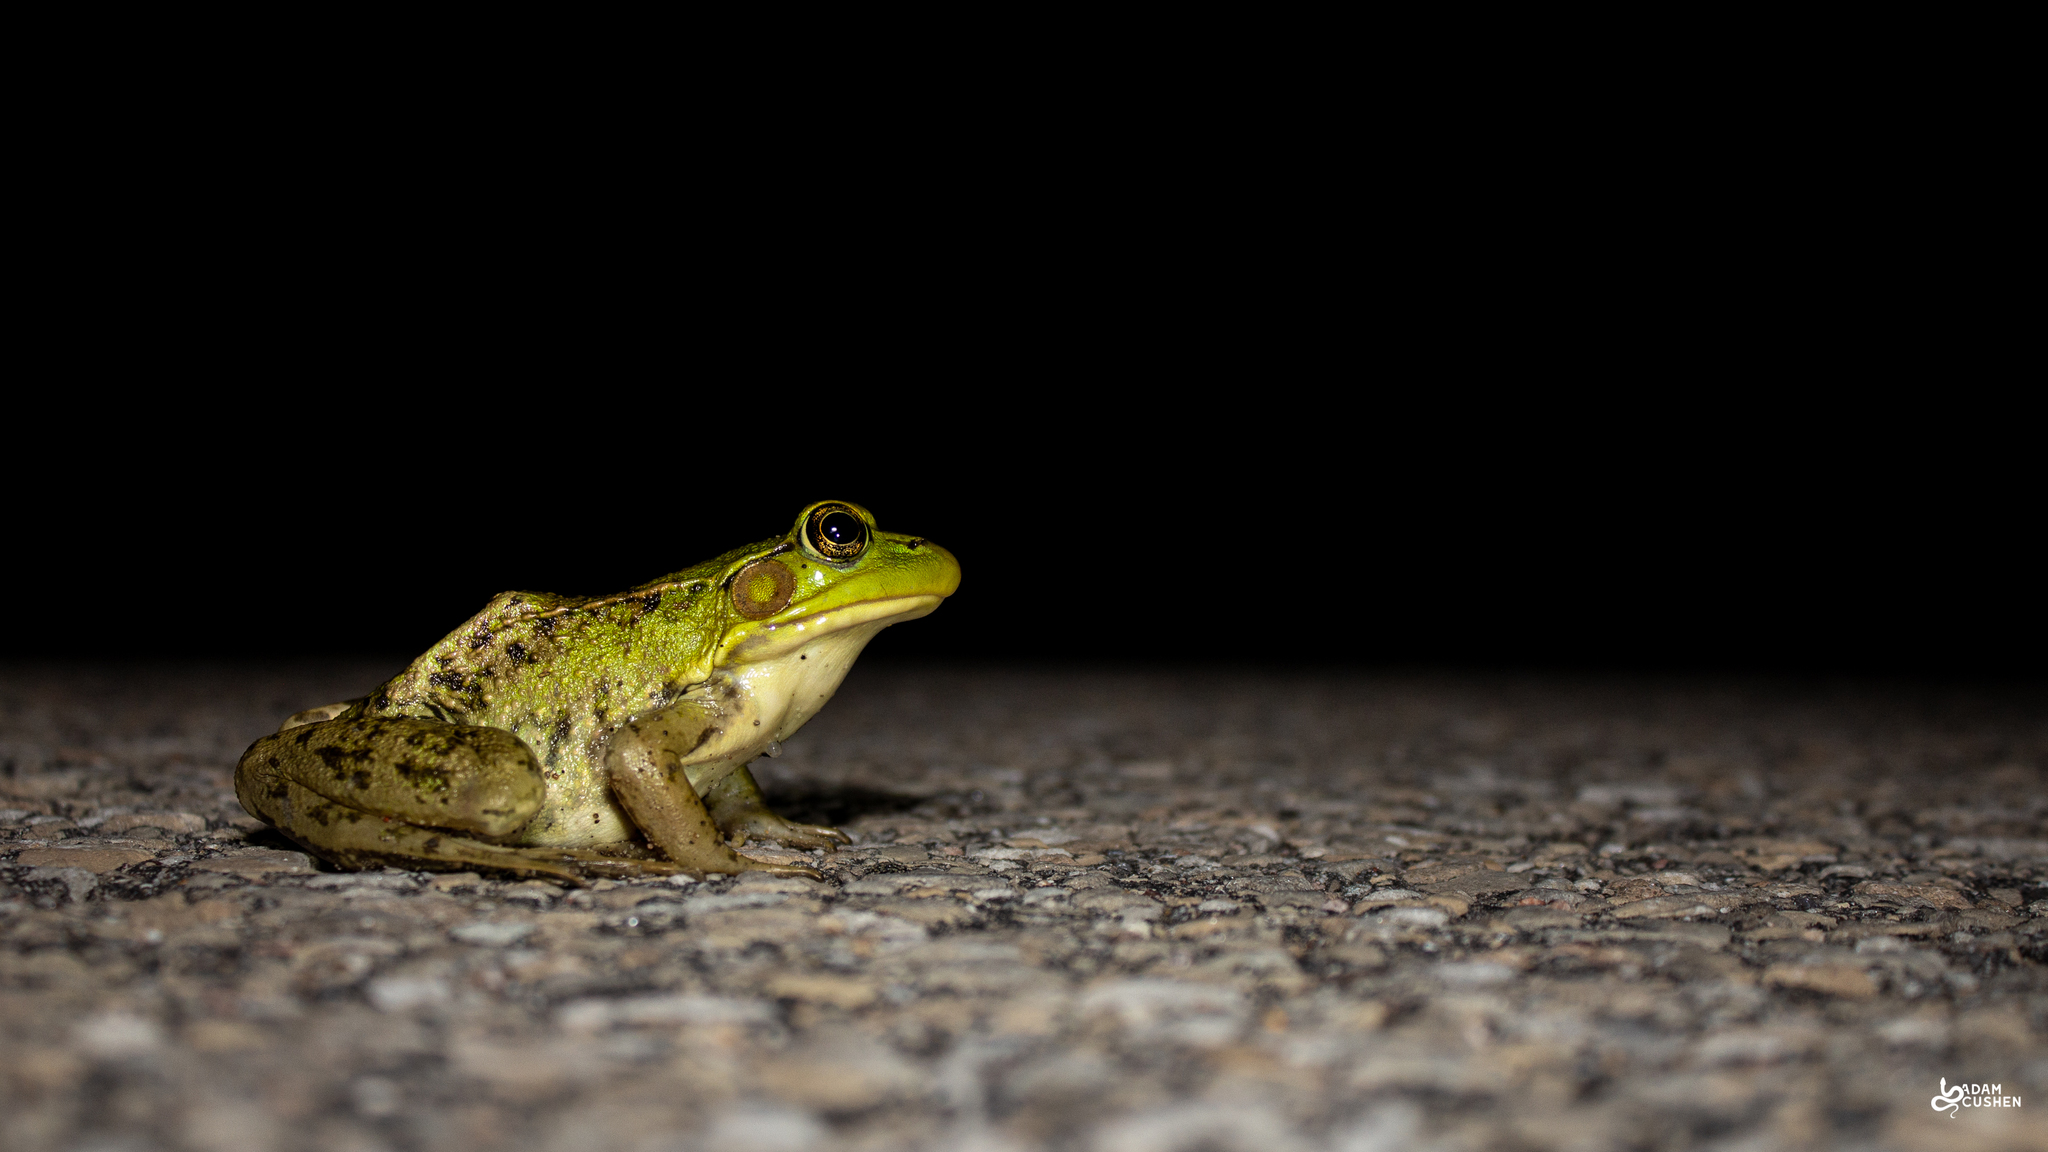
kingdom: Animalia
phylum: Chordata
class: Amphibia
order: Anura
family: Ranidae
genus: Lithobates
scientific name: Lithobates clamitans
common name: Green frog
